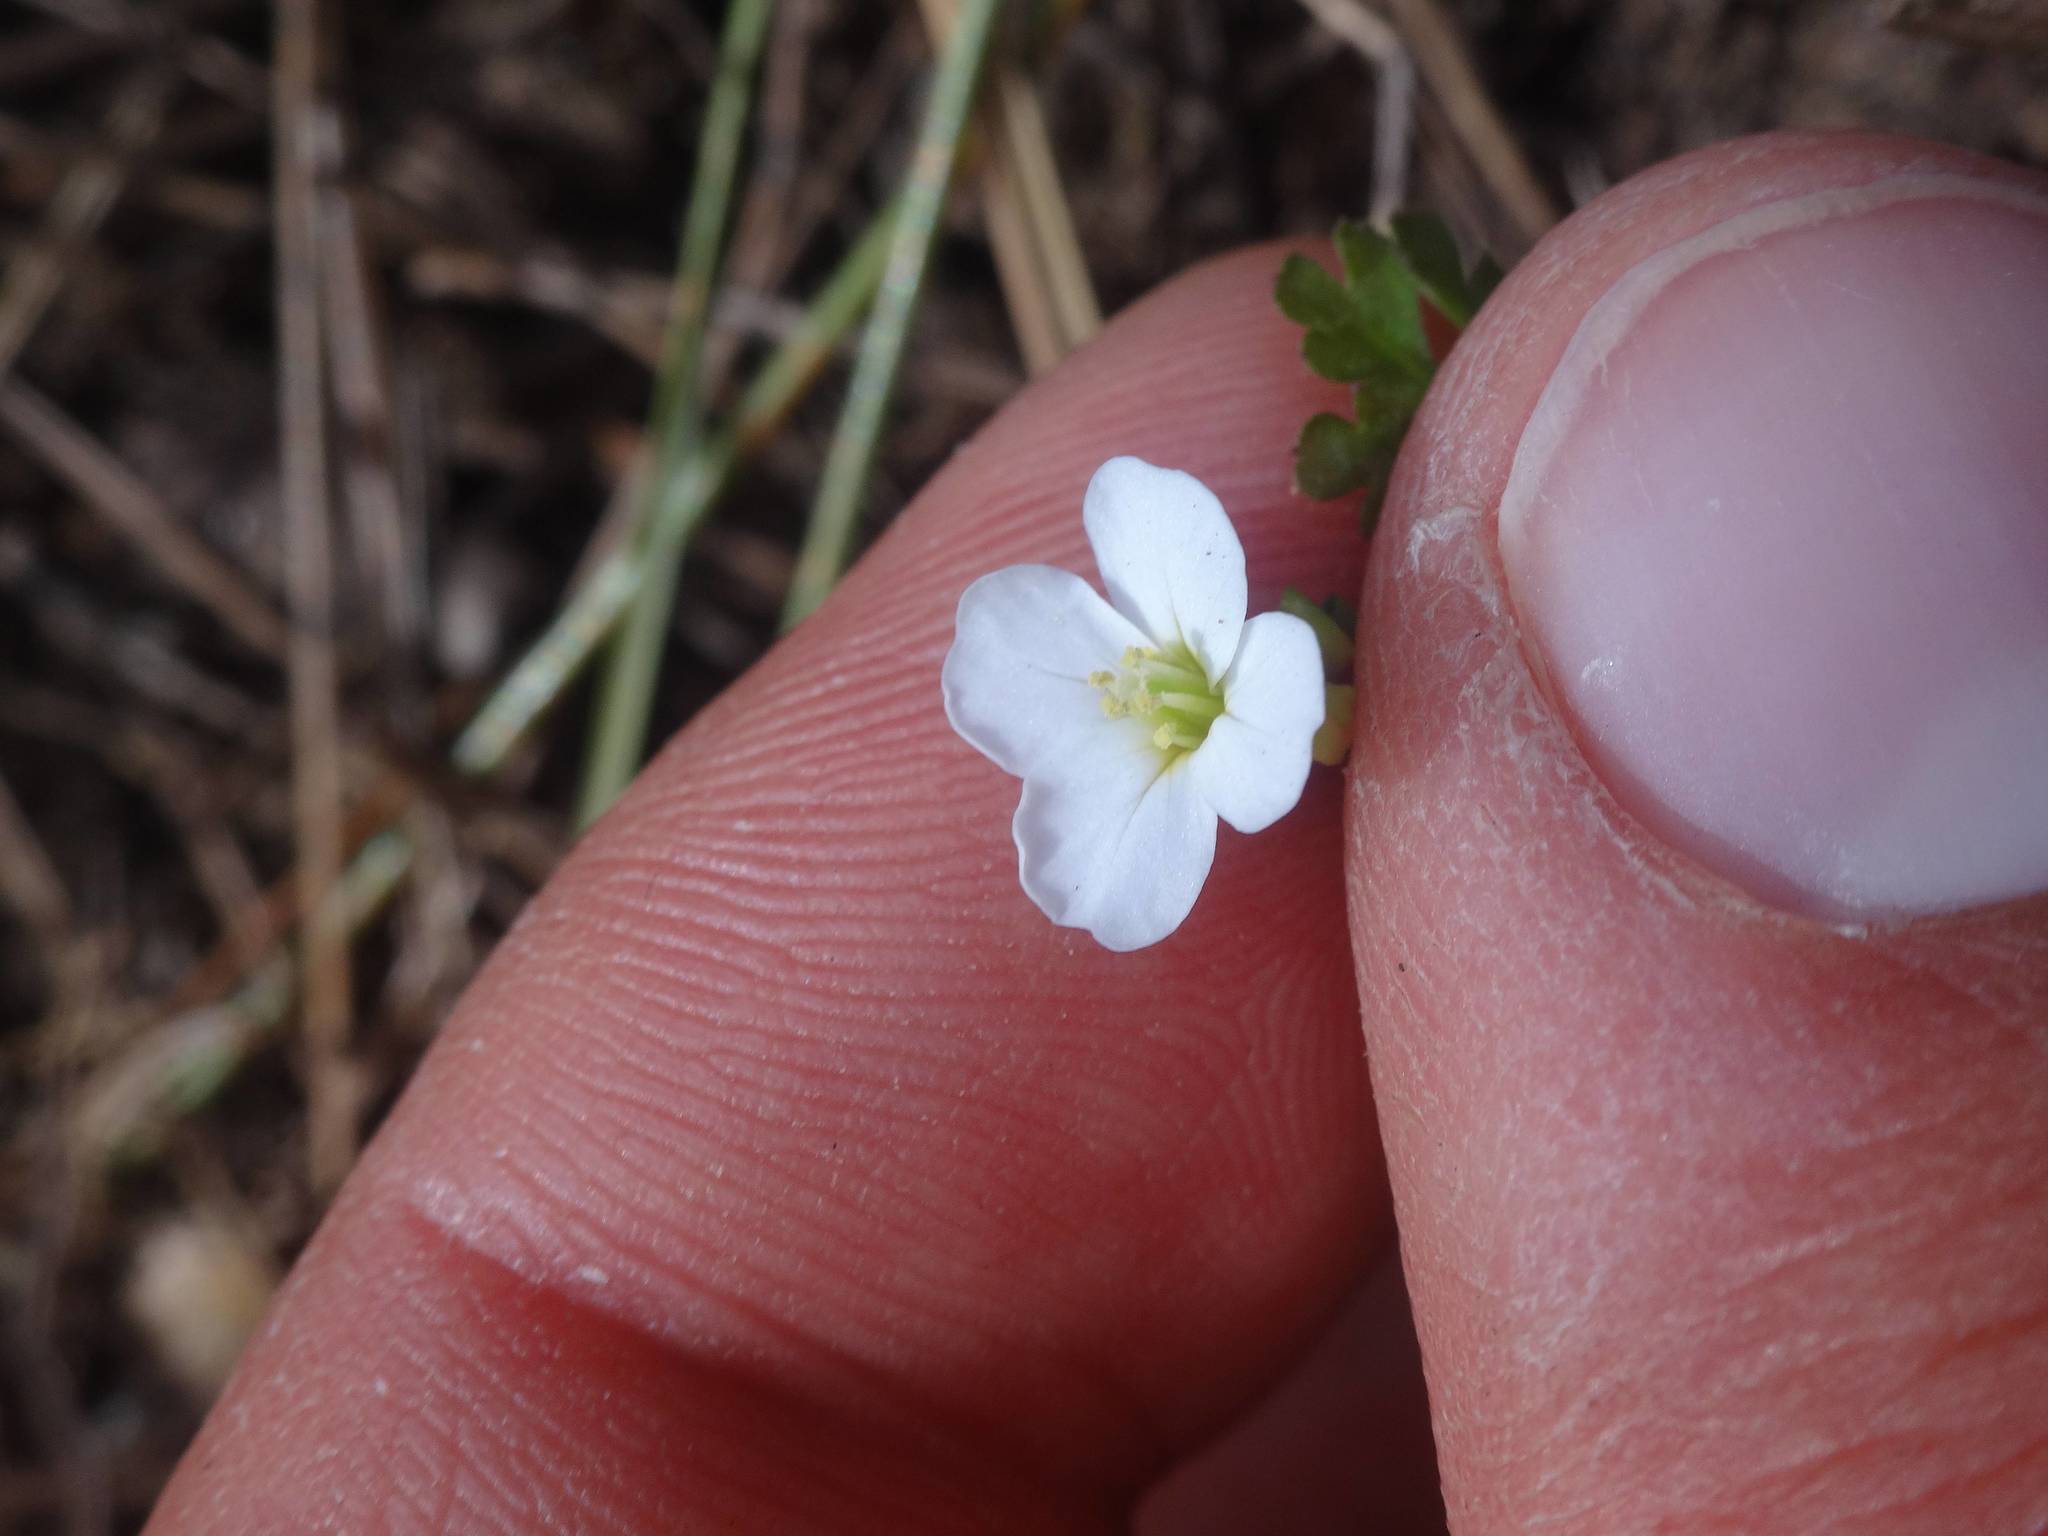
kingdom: Plantae
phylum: Tracheophyta
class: Magnoliopsida
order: Lamiales
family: Plantaginaceae
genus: Veronica
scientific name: Veronica cymbalaria
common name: Pale speedwell
